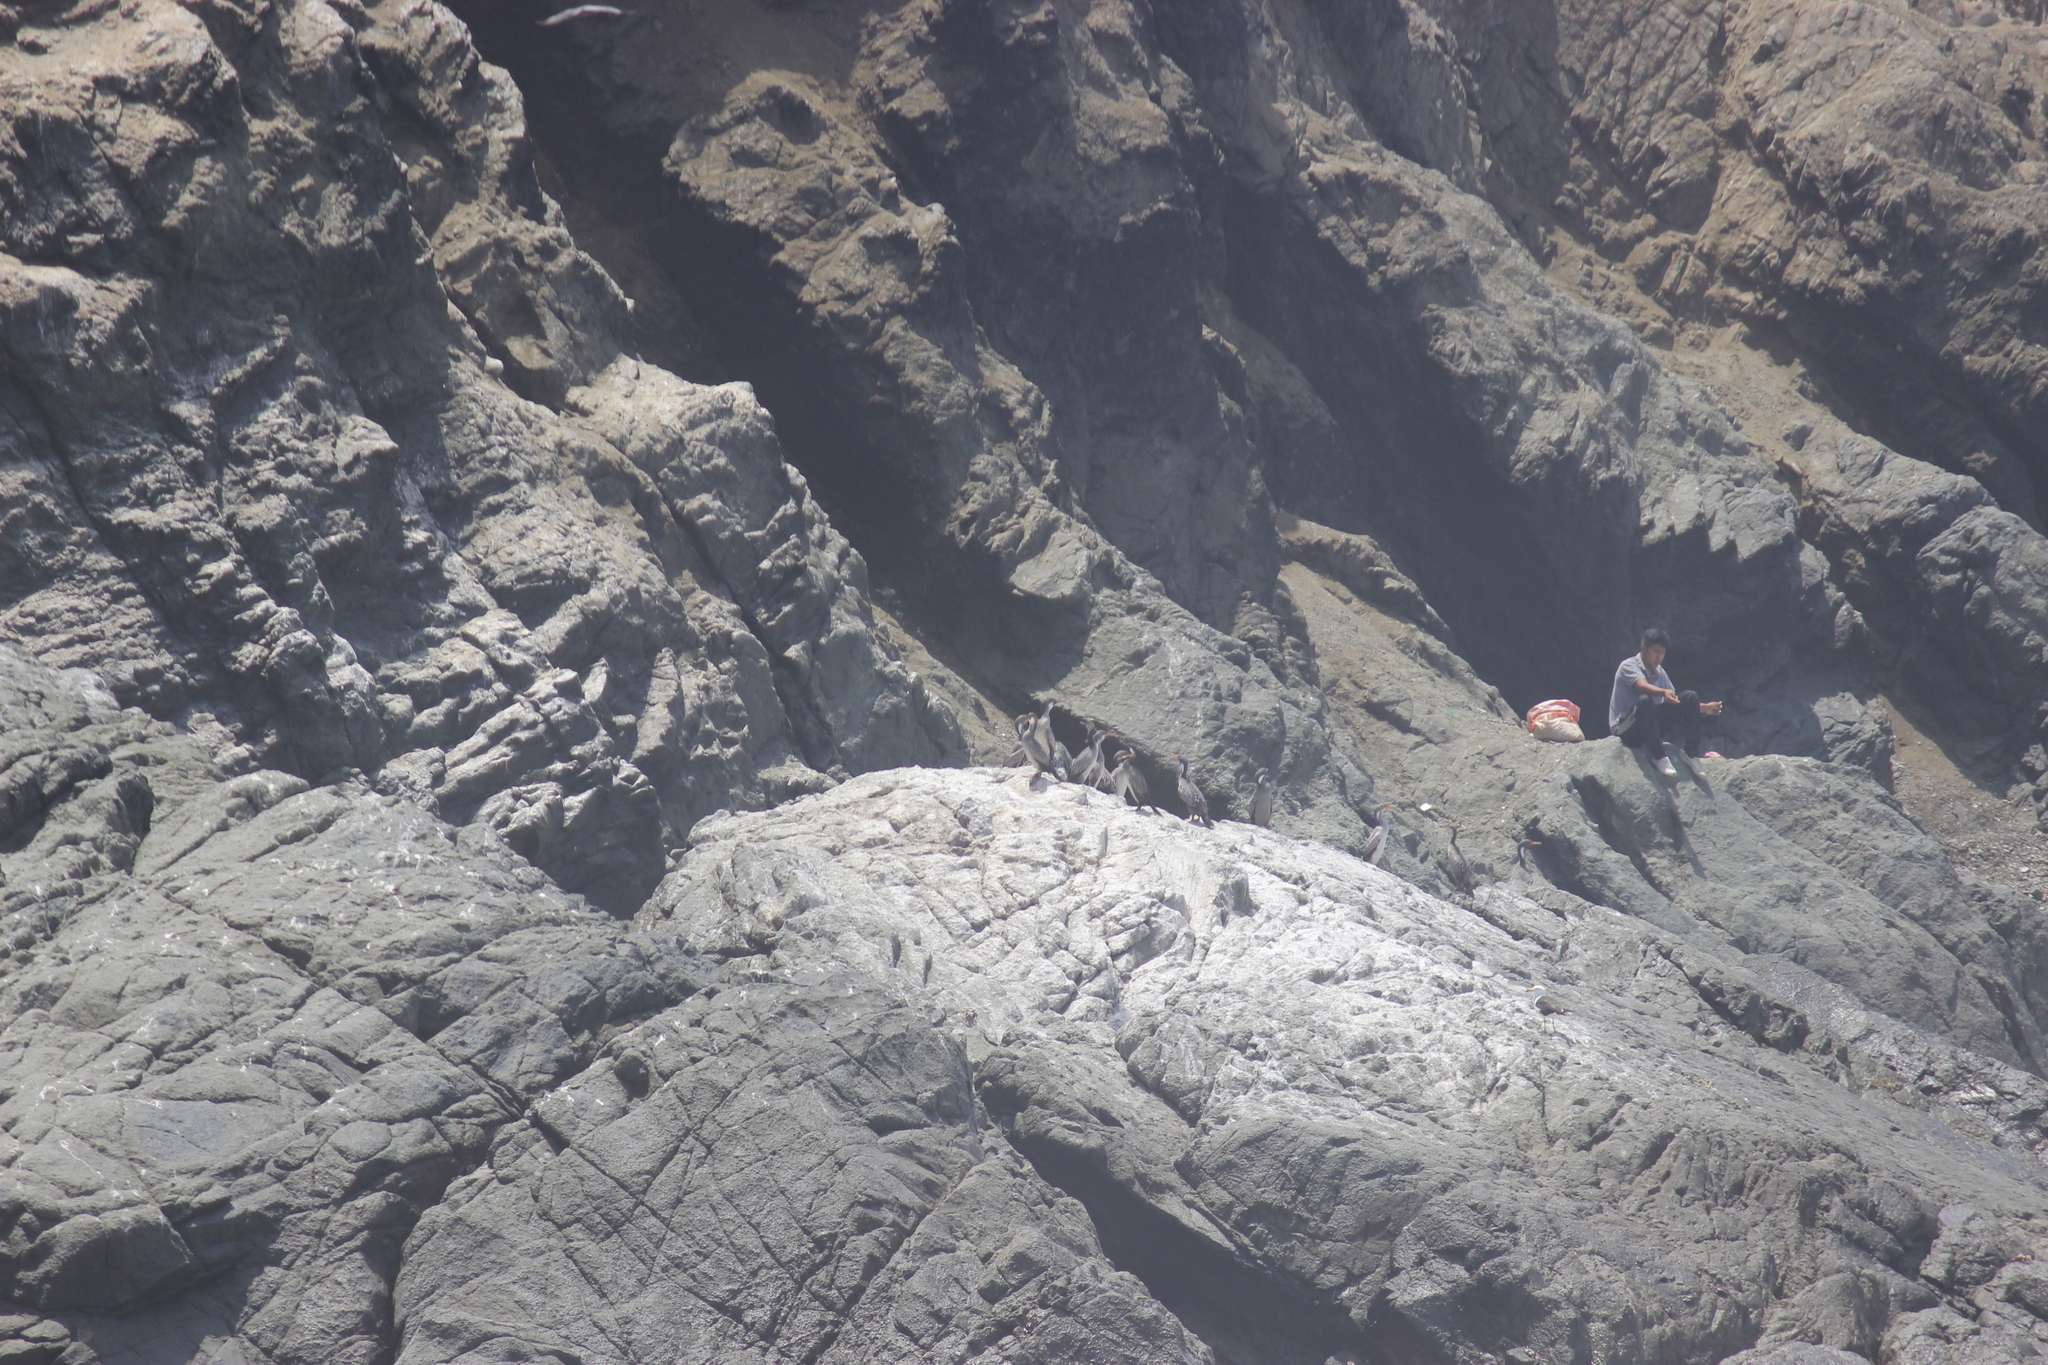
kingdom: Animalia
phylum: Chordata
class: Aves
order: Suliformes
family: Phalacrocoracidae
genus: Phalacrocorax
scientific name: Phalacrocorax gaimardi
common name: Red-legged cormorant
